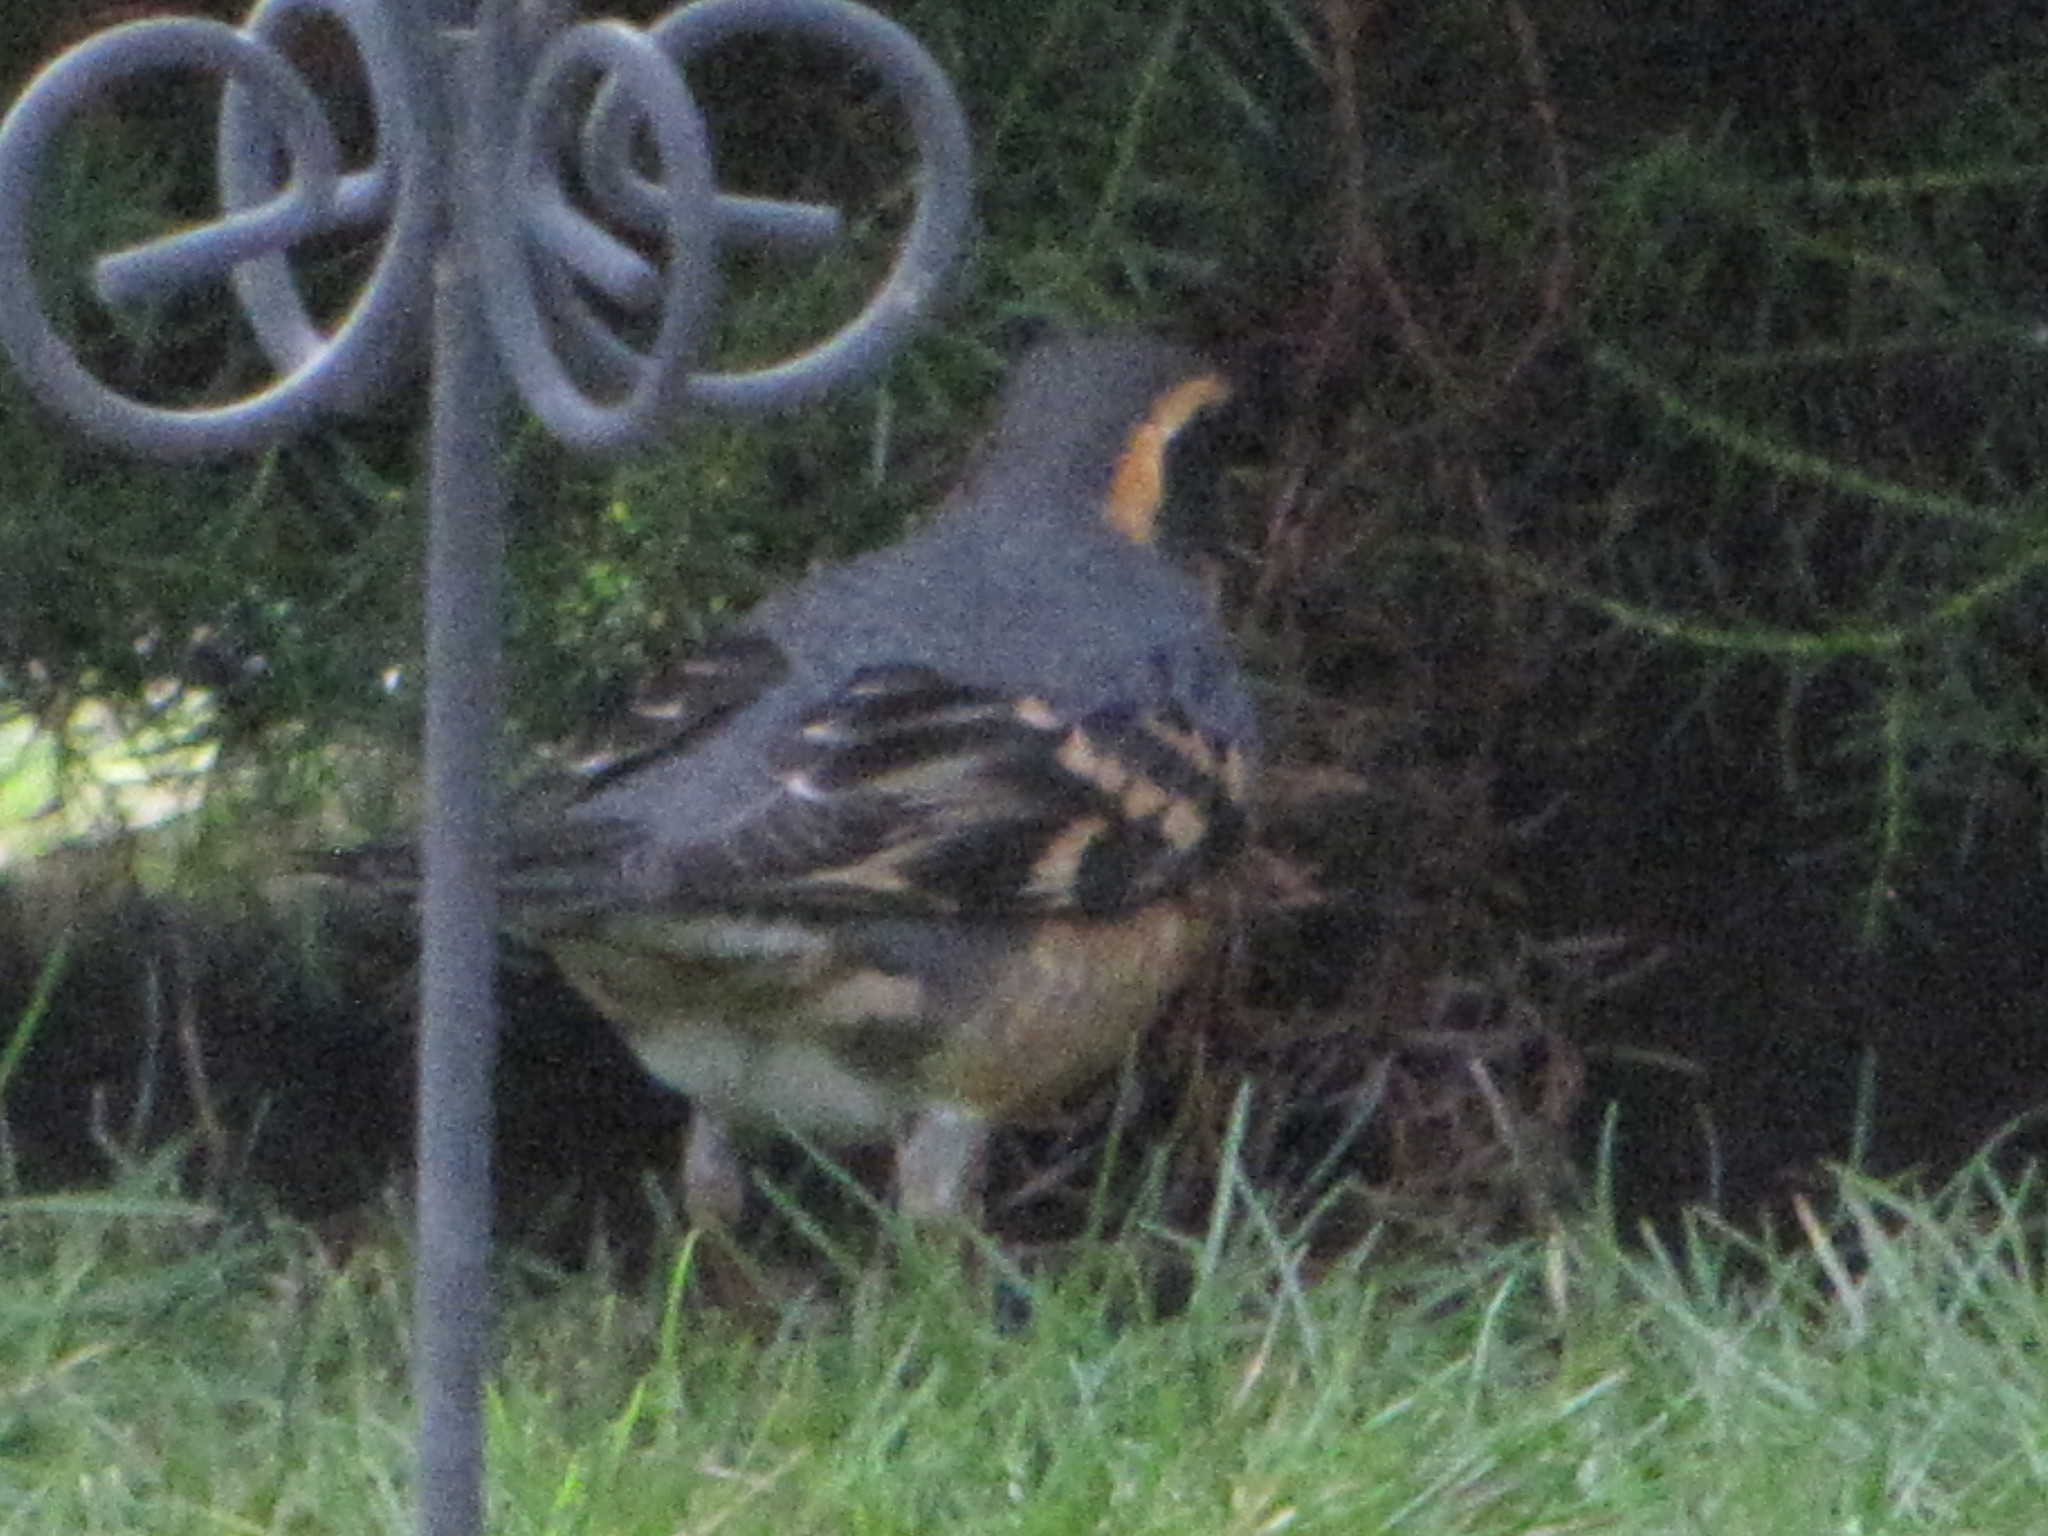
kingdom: Animalia
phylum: Chordata
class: Aves
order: Passeriformes
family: Turdidae
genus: Ixoreus
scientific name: Ixoreus naevius
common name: Varied thrush
